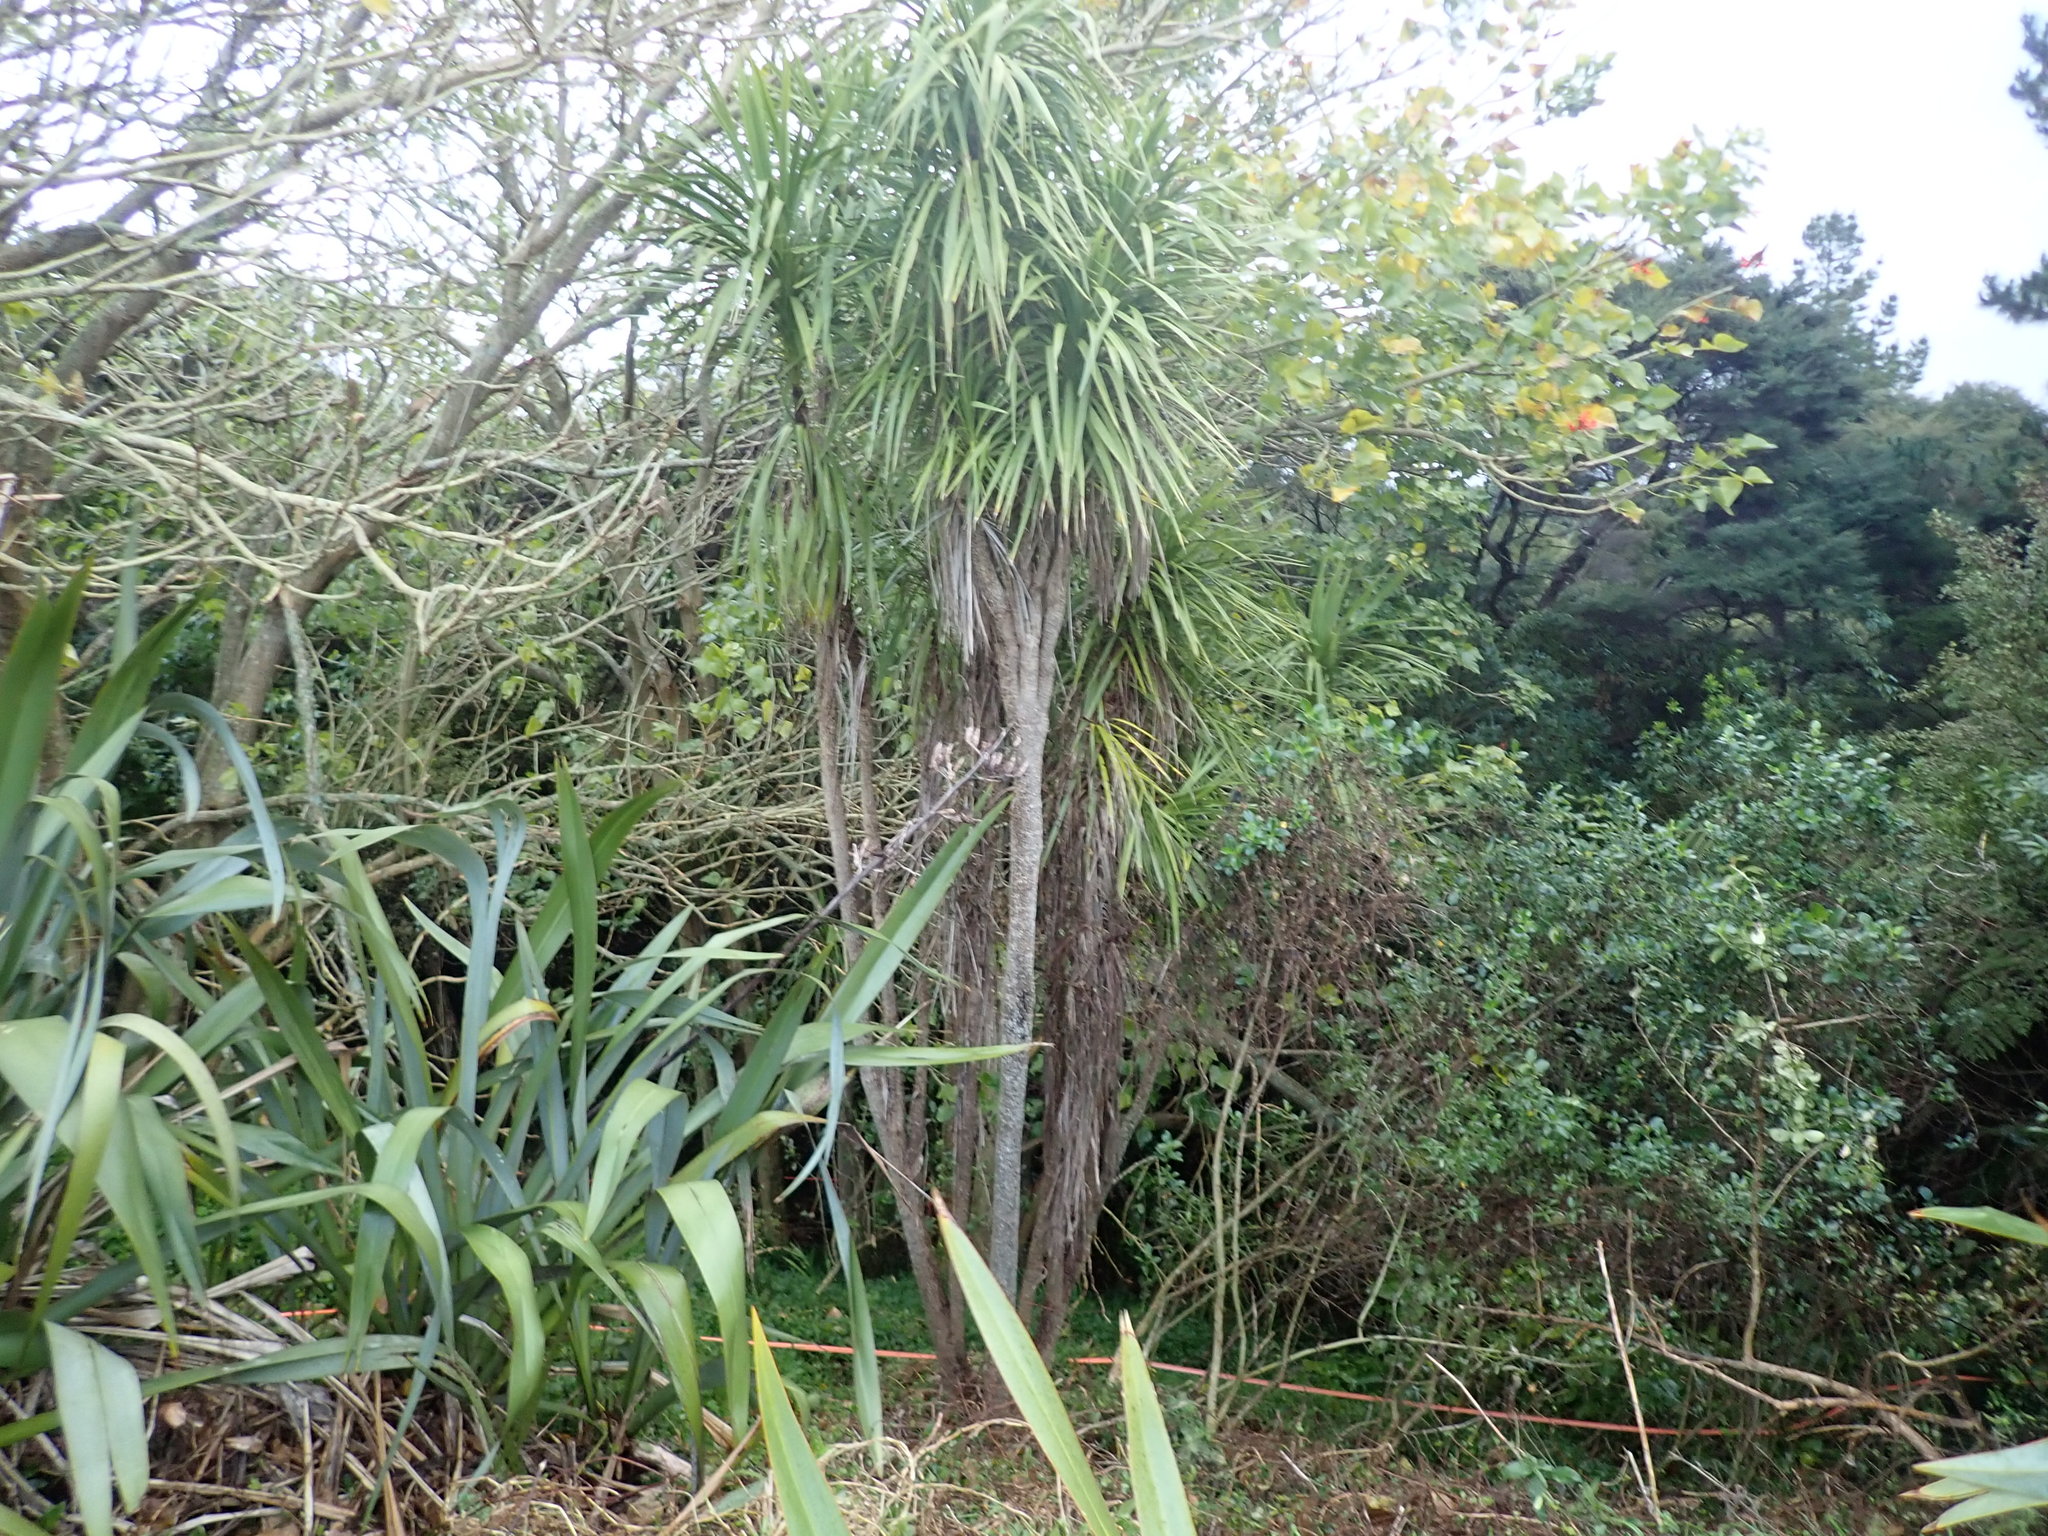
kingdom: Plantae
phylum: Tracheophyta
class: Liliopsida
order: Asparagales
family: Asparagaceae
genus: Cordyline
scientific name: Cordyline australis
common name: Cabbage-palm
